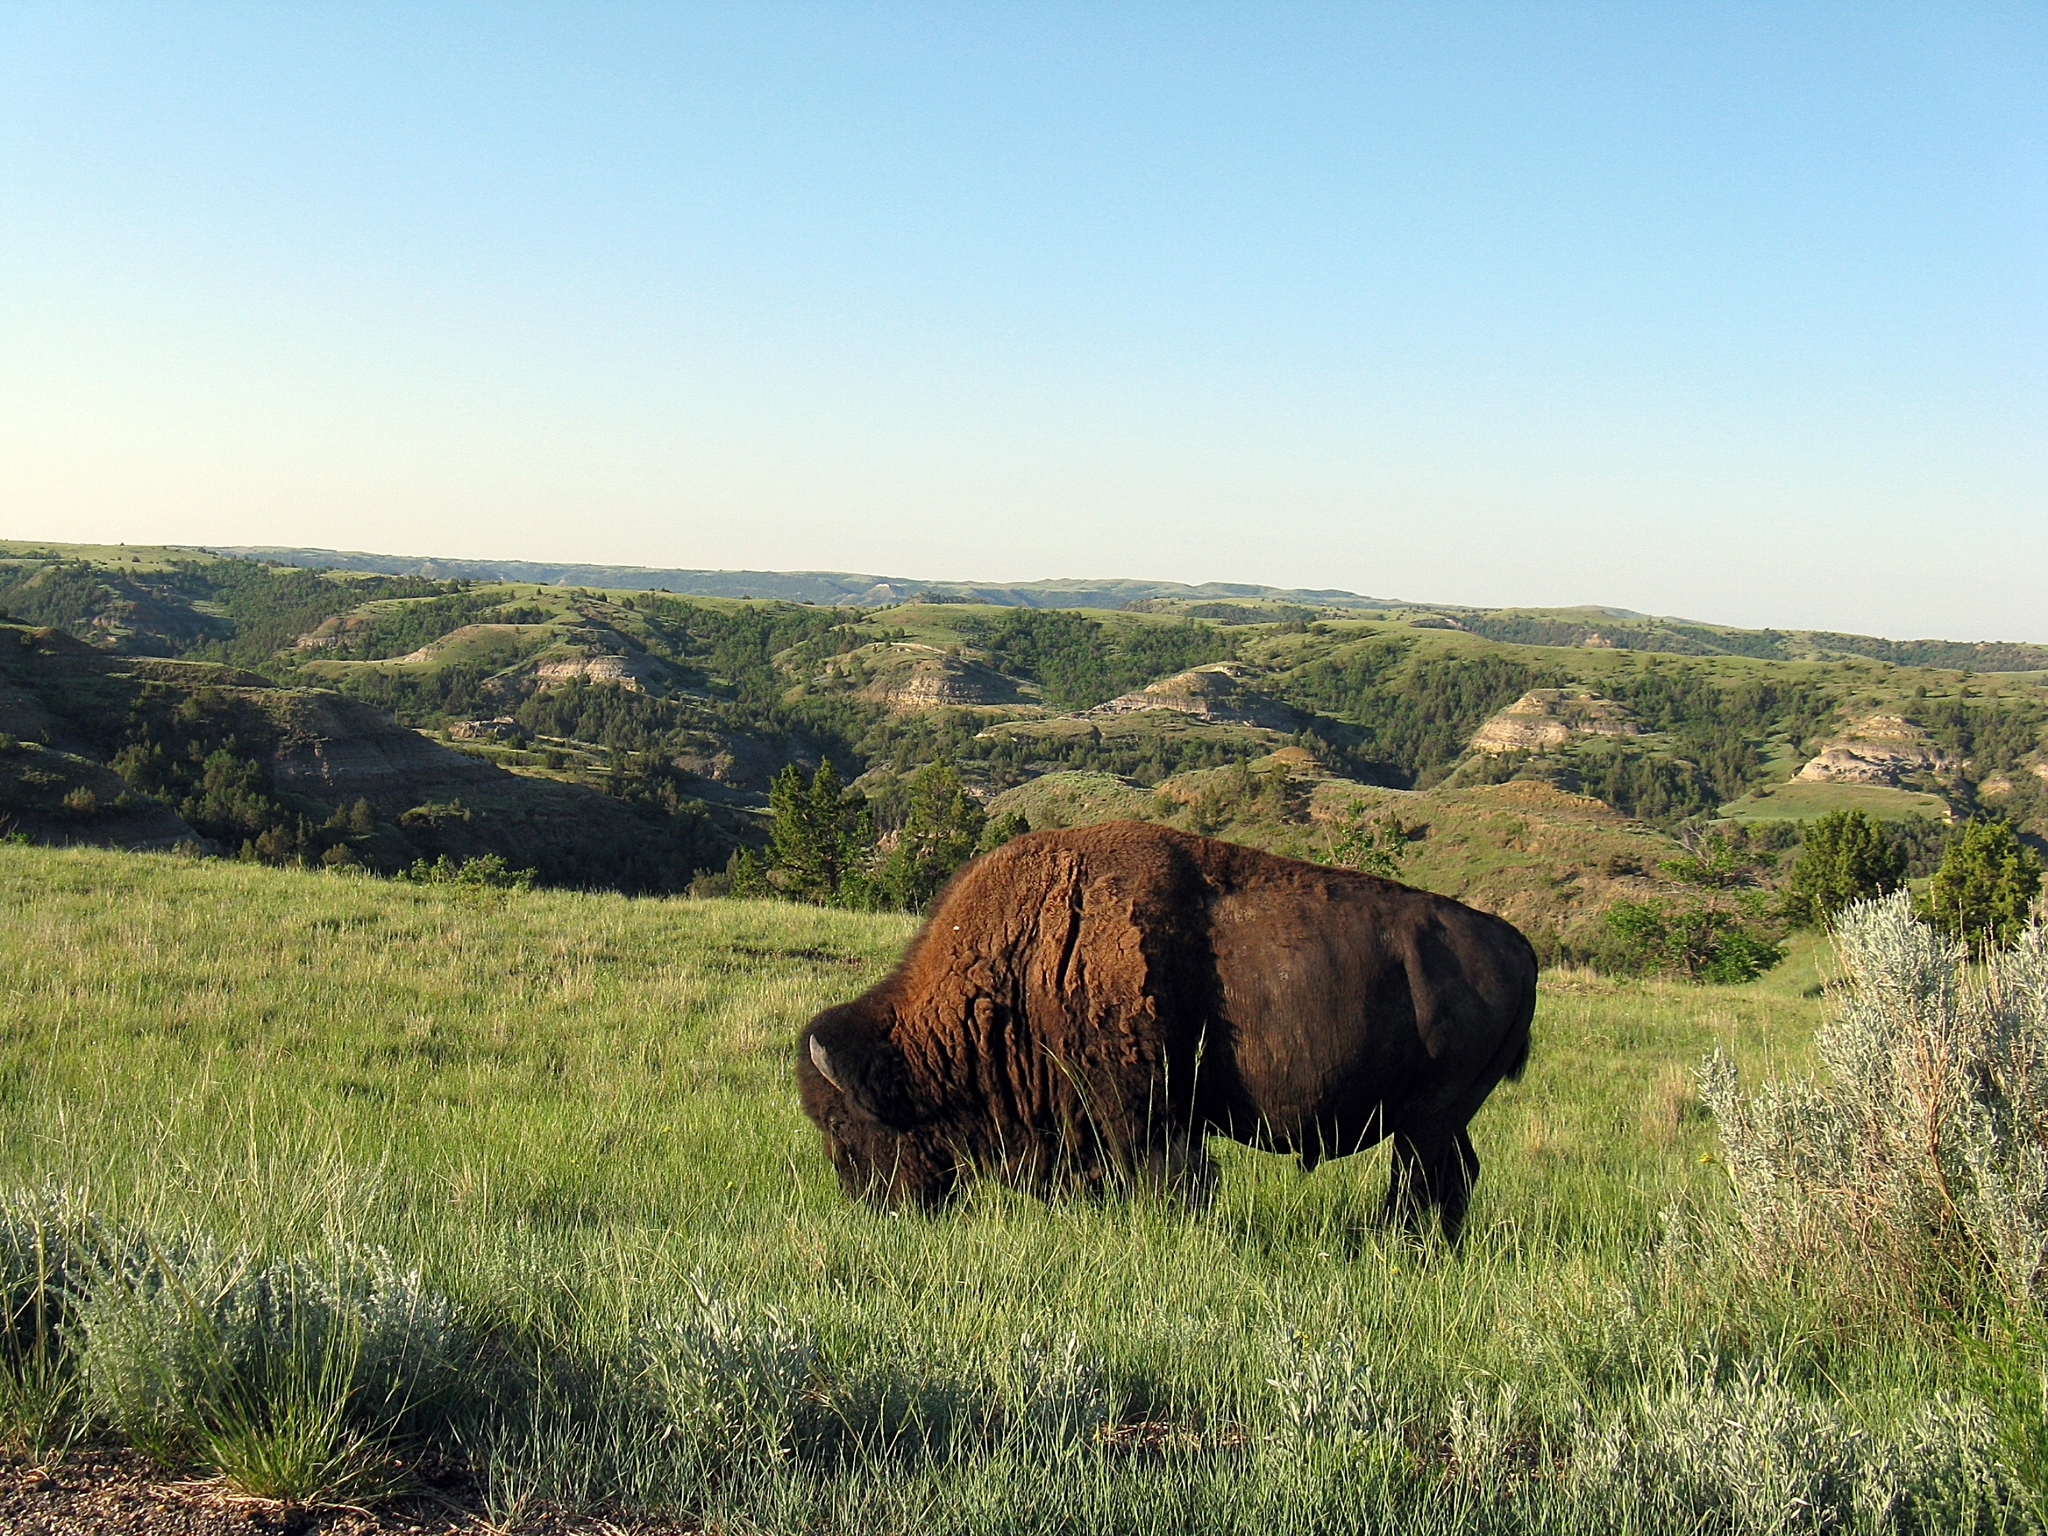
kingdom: Animalia
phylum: Chordata
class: Mammalia
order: Artiodactyla
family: Bovidae
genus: Bison
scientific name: Bison bison
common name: American bison
